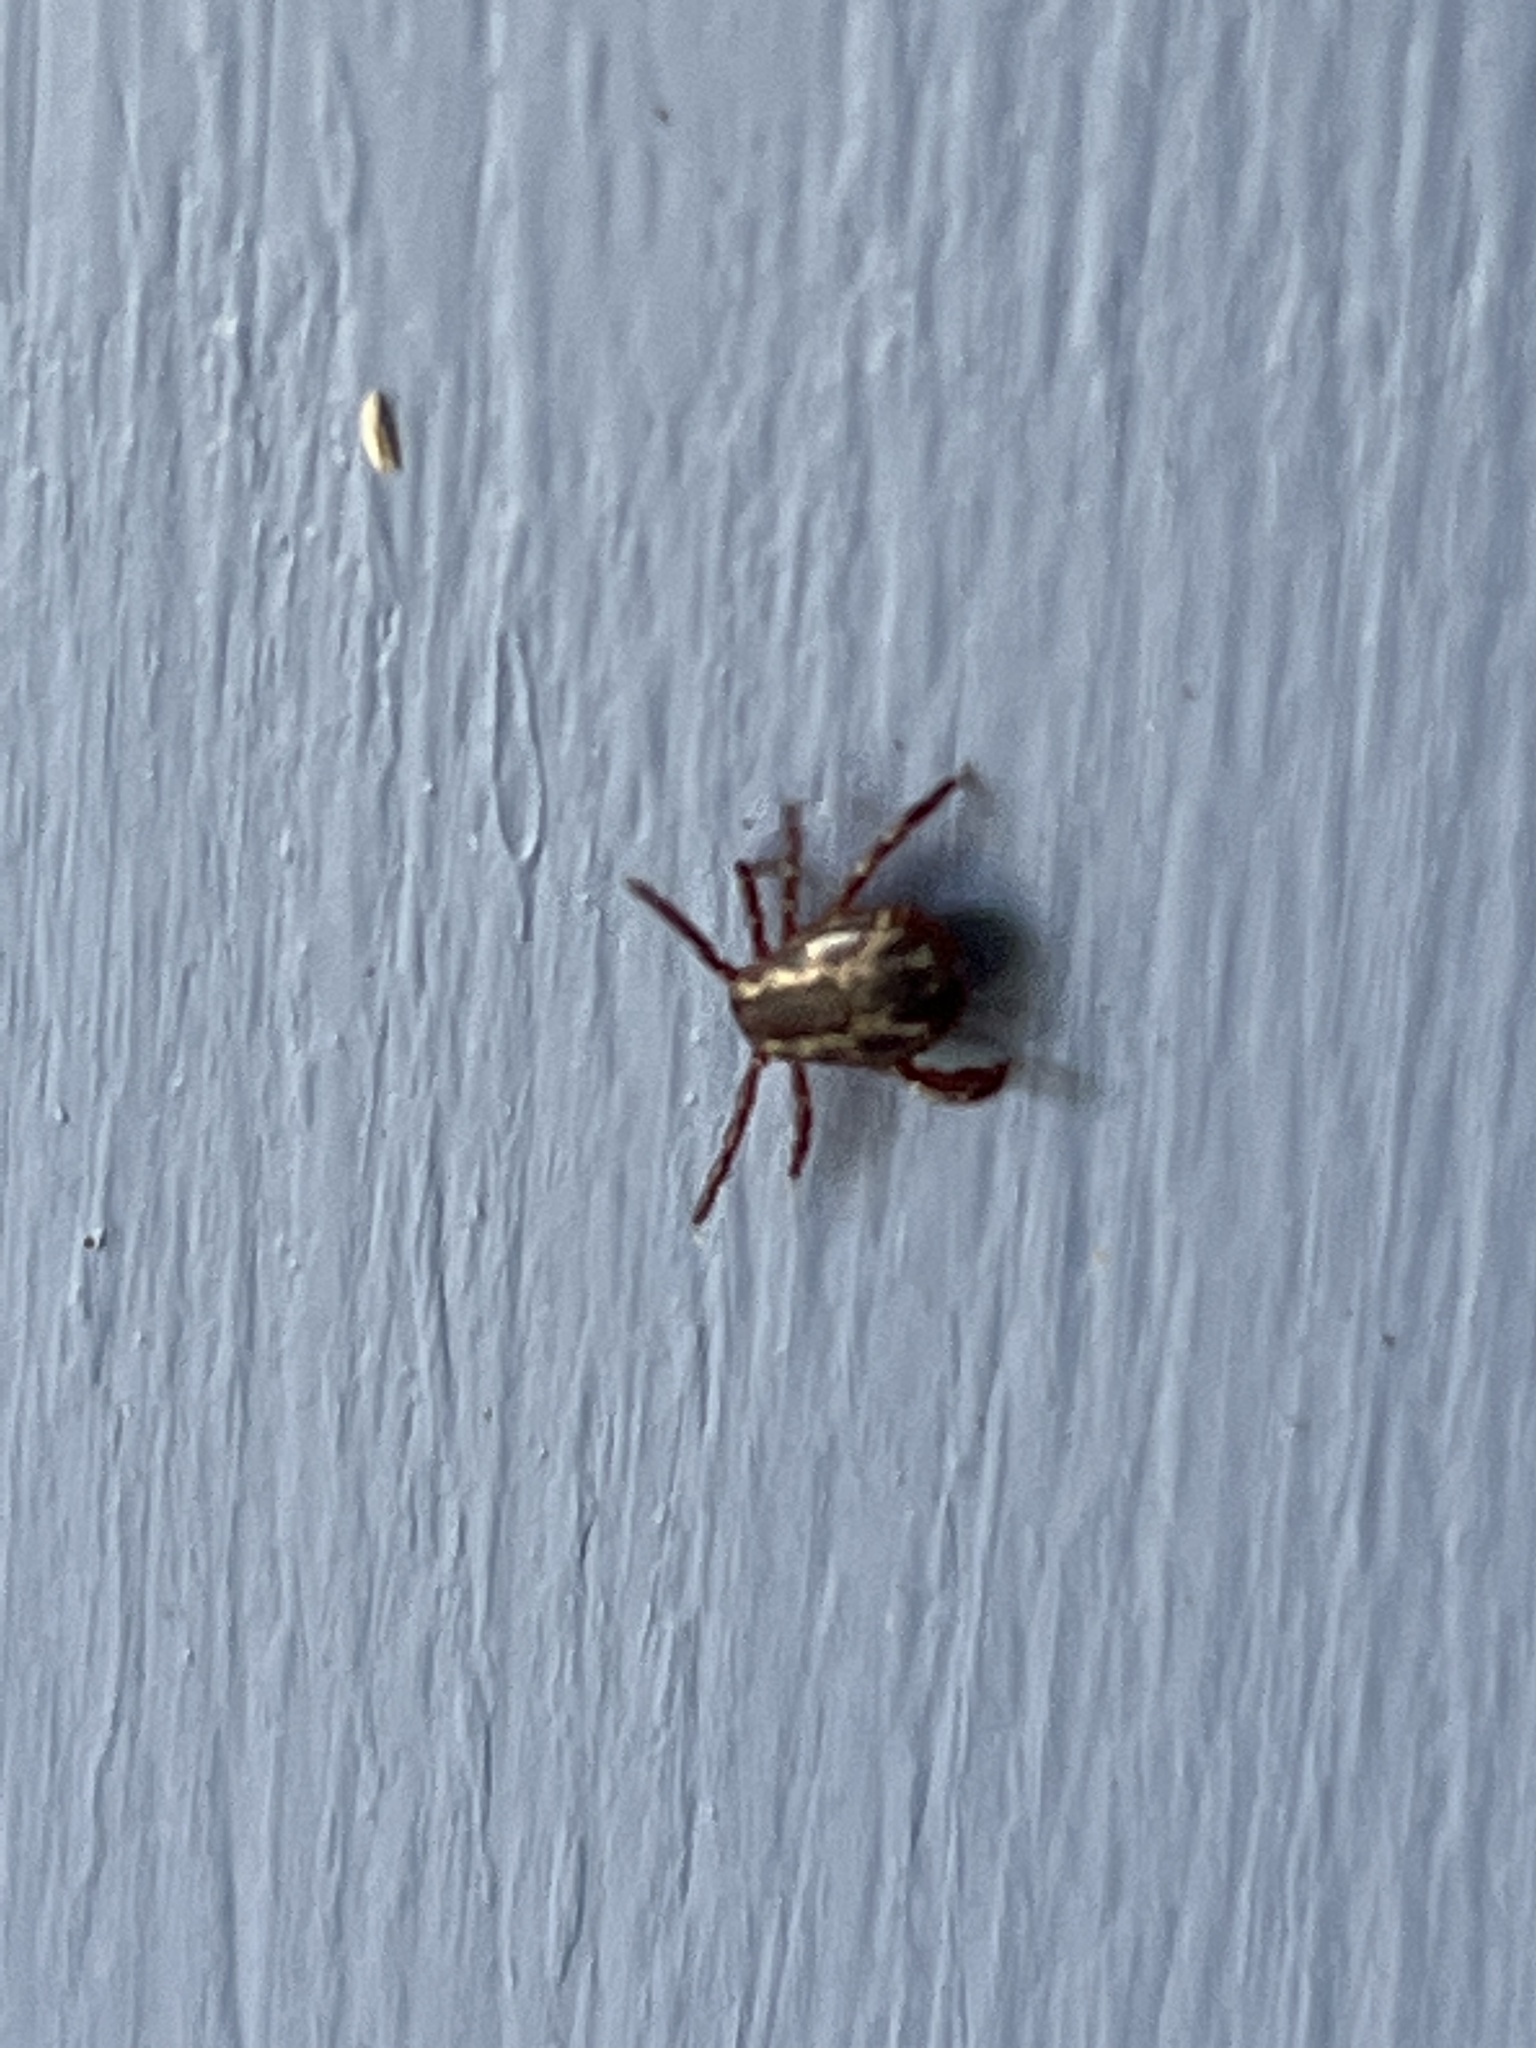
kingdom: Animalia
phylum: Arthropoda
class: Arachnida
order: Ixodida
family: Ixodidae
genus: Dermacentor
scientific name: Dermacentor variabilis
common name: American dog tick
